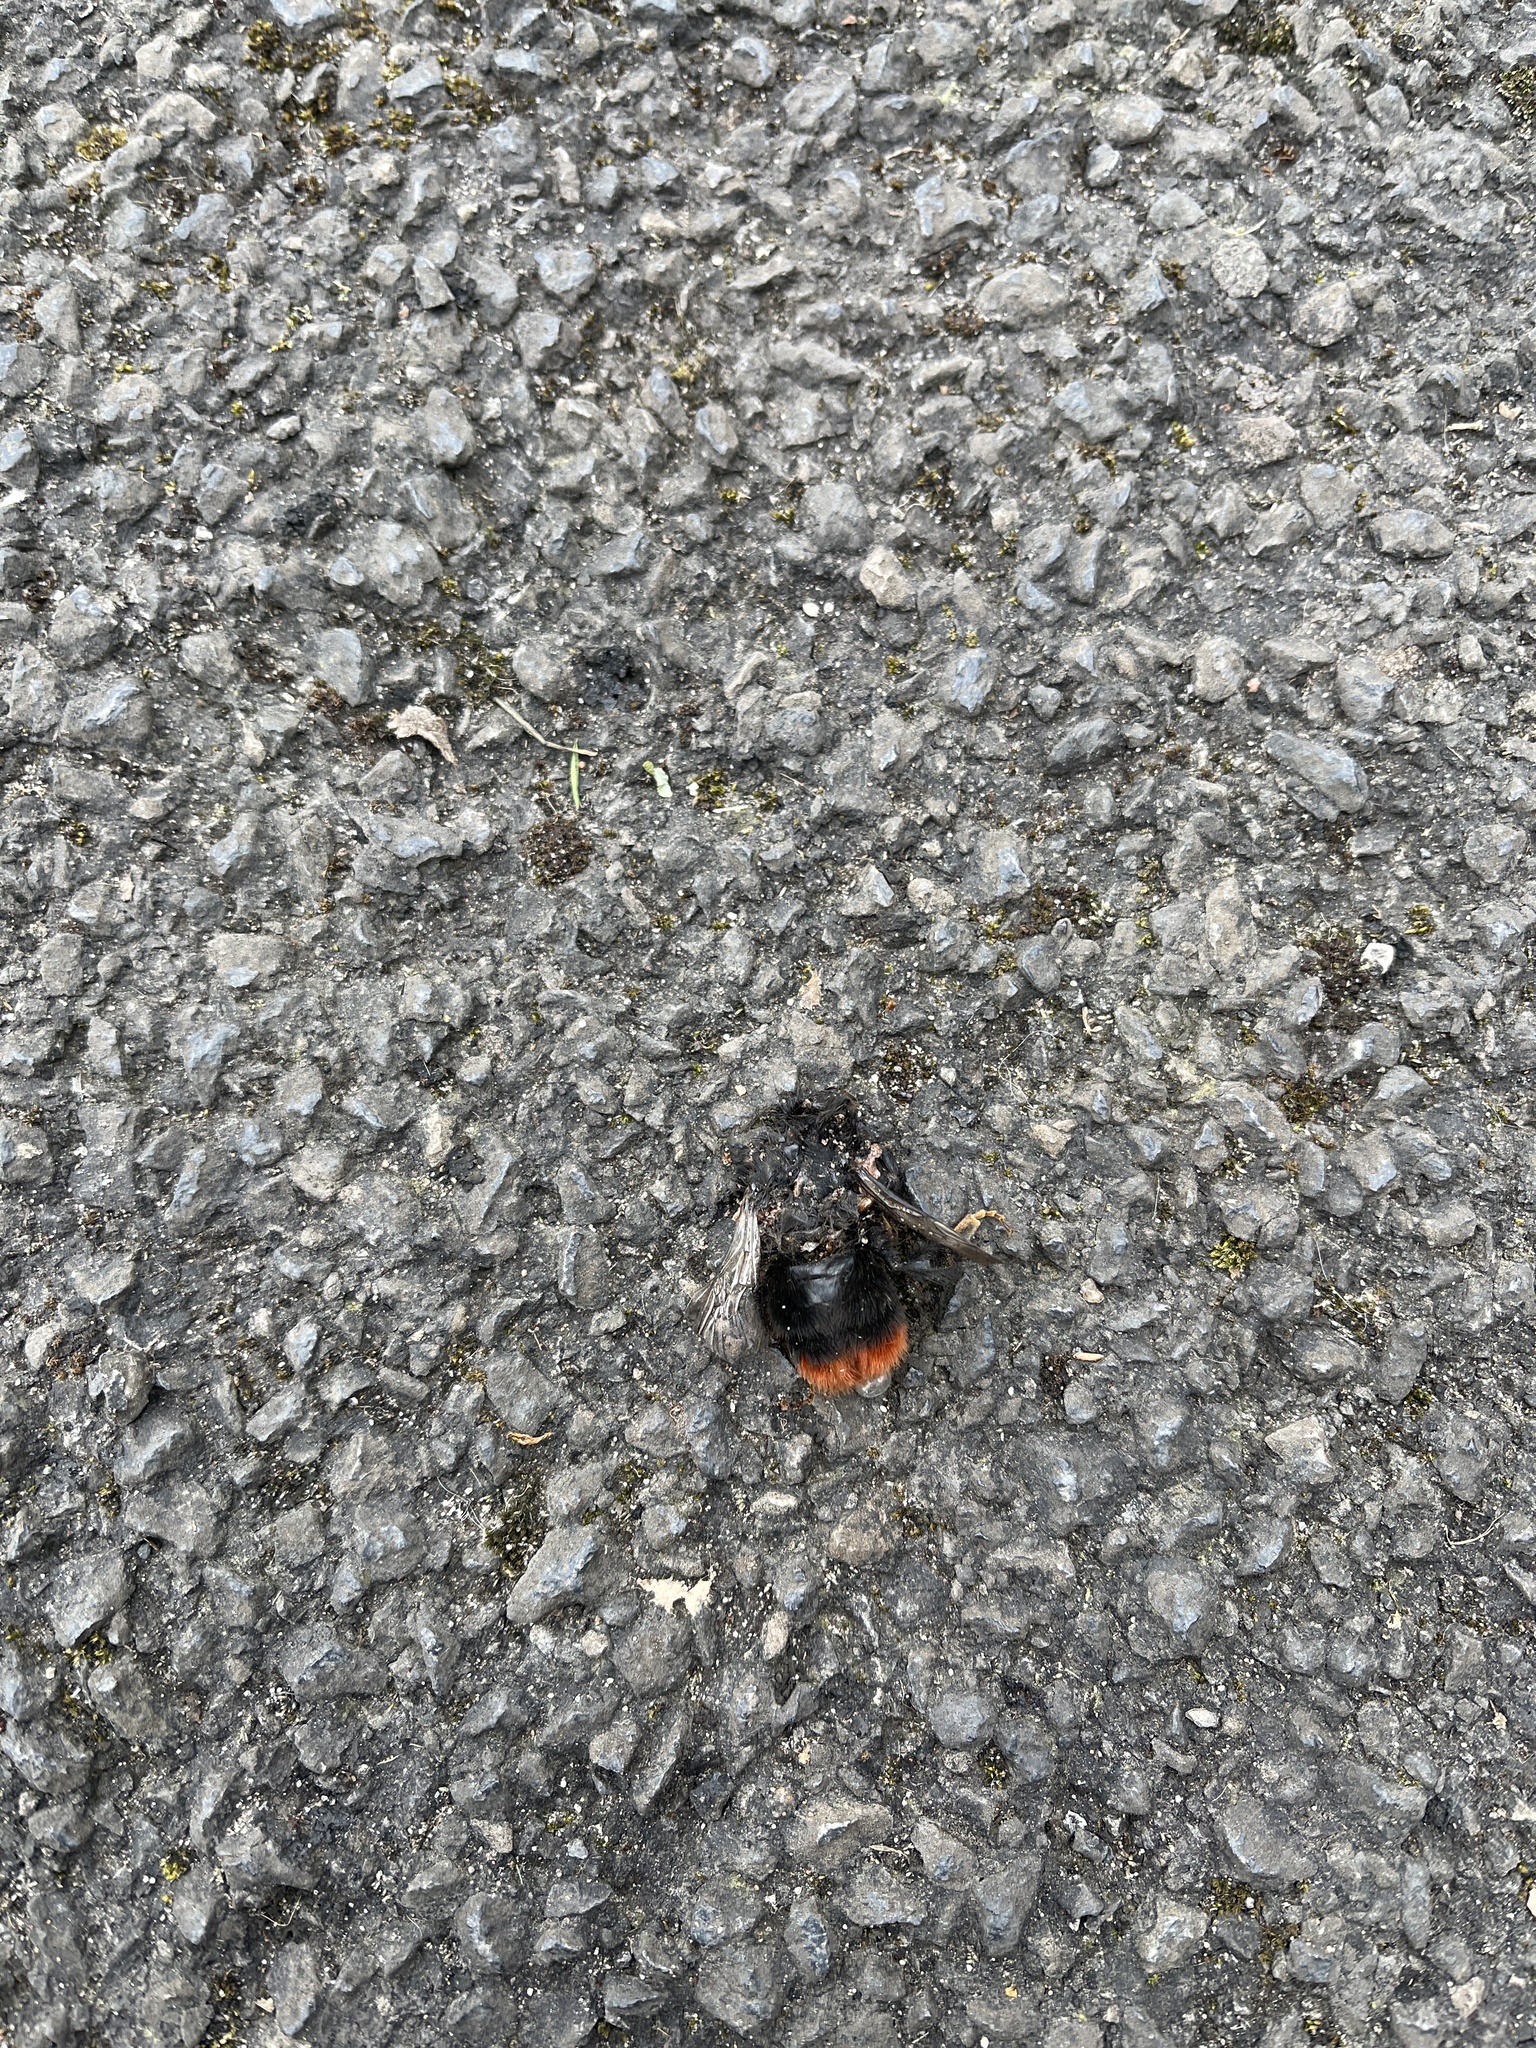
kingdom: Animalia
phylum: Arthropoda
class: Insecta
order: Hymenoptera
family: Apidae
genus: Bombus
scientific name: Bombus lapidarius
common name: Large red-tailed humble-bee
